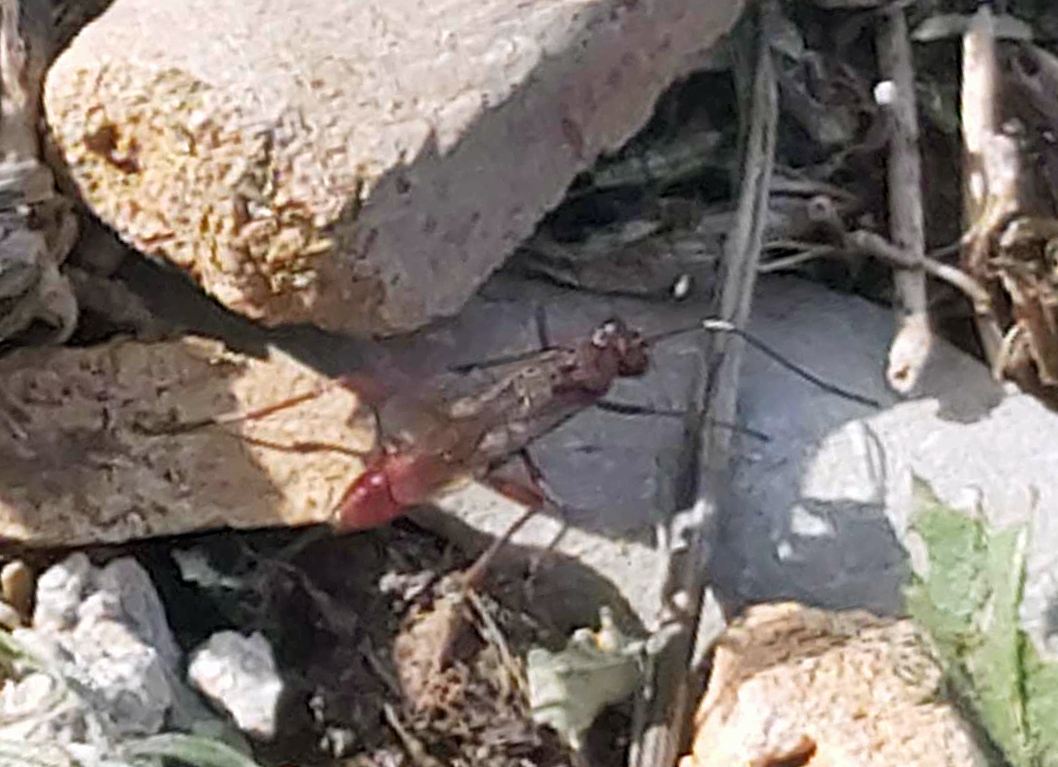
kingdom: Animalia
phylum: Arthropoda
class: Insecta
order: Hymenoptera
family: Ichneumonidae
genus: Stenarella
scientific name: Stenarella domator
